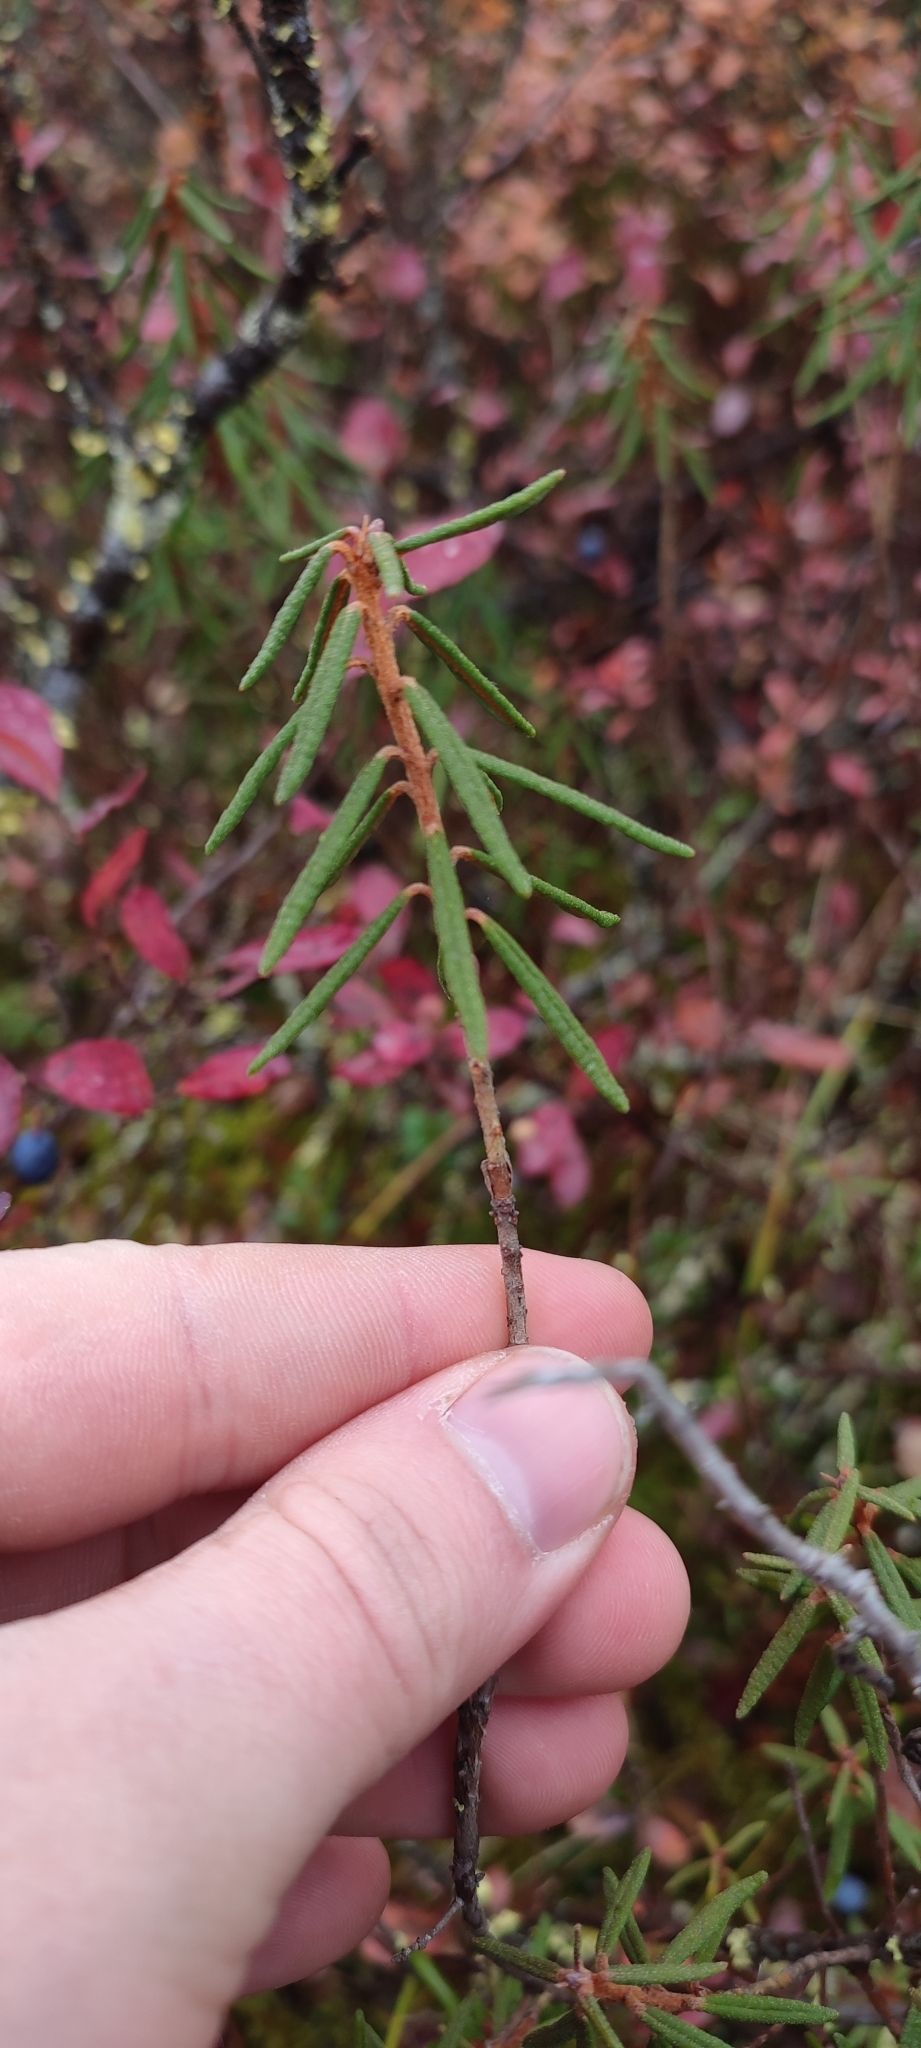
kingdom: Plantae
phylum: Tracheophyta
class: Magnoliopsida
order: Ericales
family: Ericaceae
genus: Rhododendron
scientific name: Rhododendron tomentosum
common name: Marsh labrador tea
